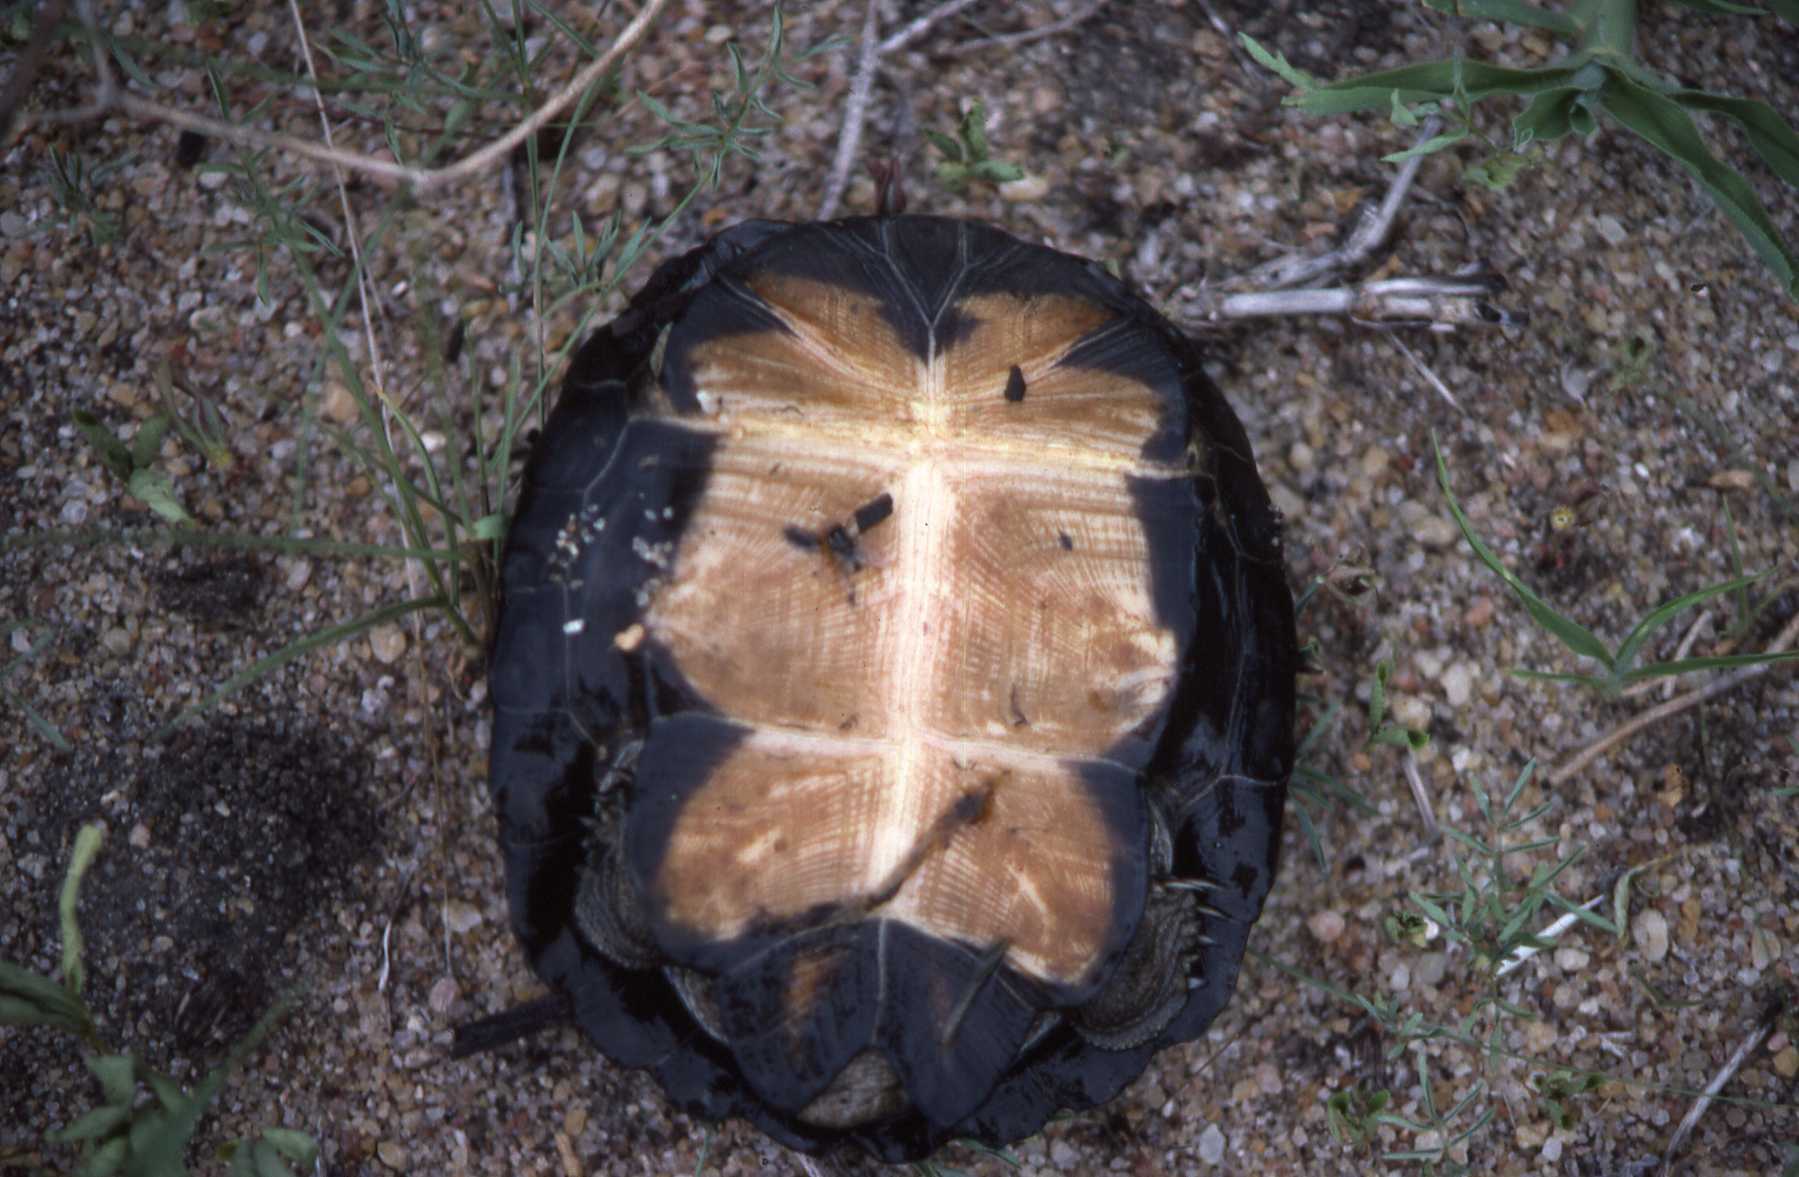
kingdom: Animalia
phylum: Chordata
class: Testudines
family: Pelomedusidae
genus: Pelusios
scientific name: Pelusios sinuatus
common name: Serrated hinged terrapin
